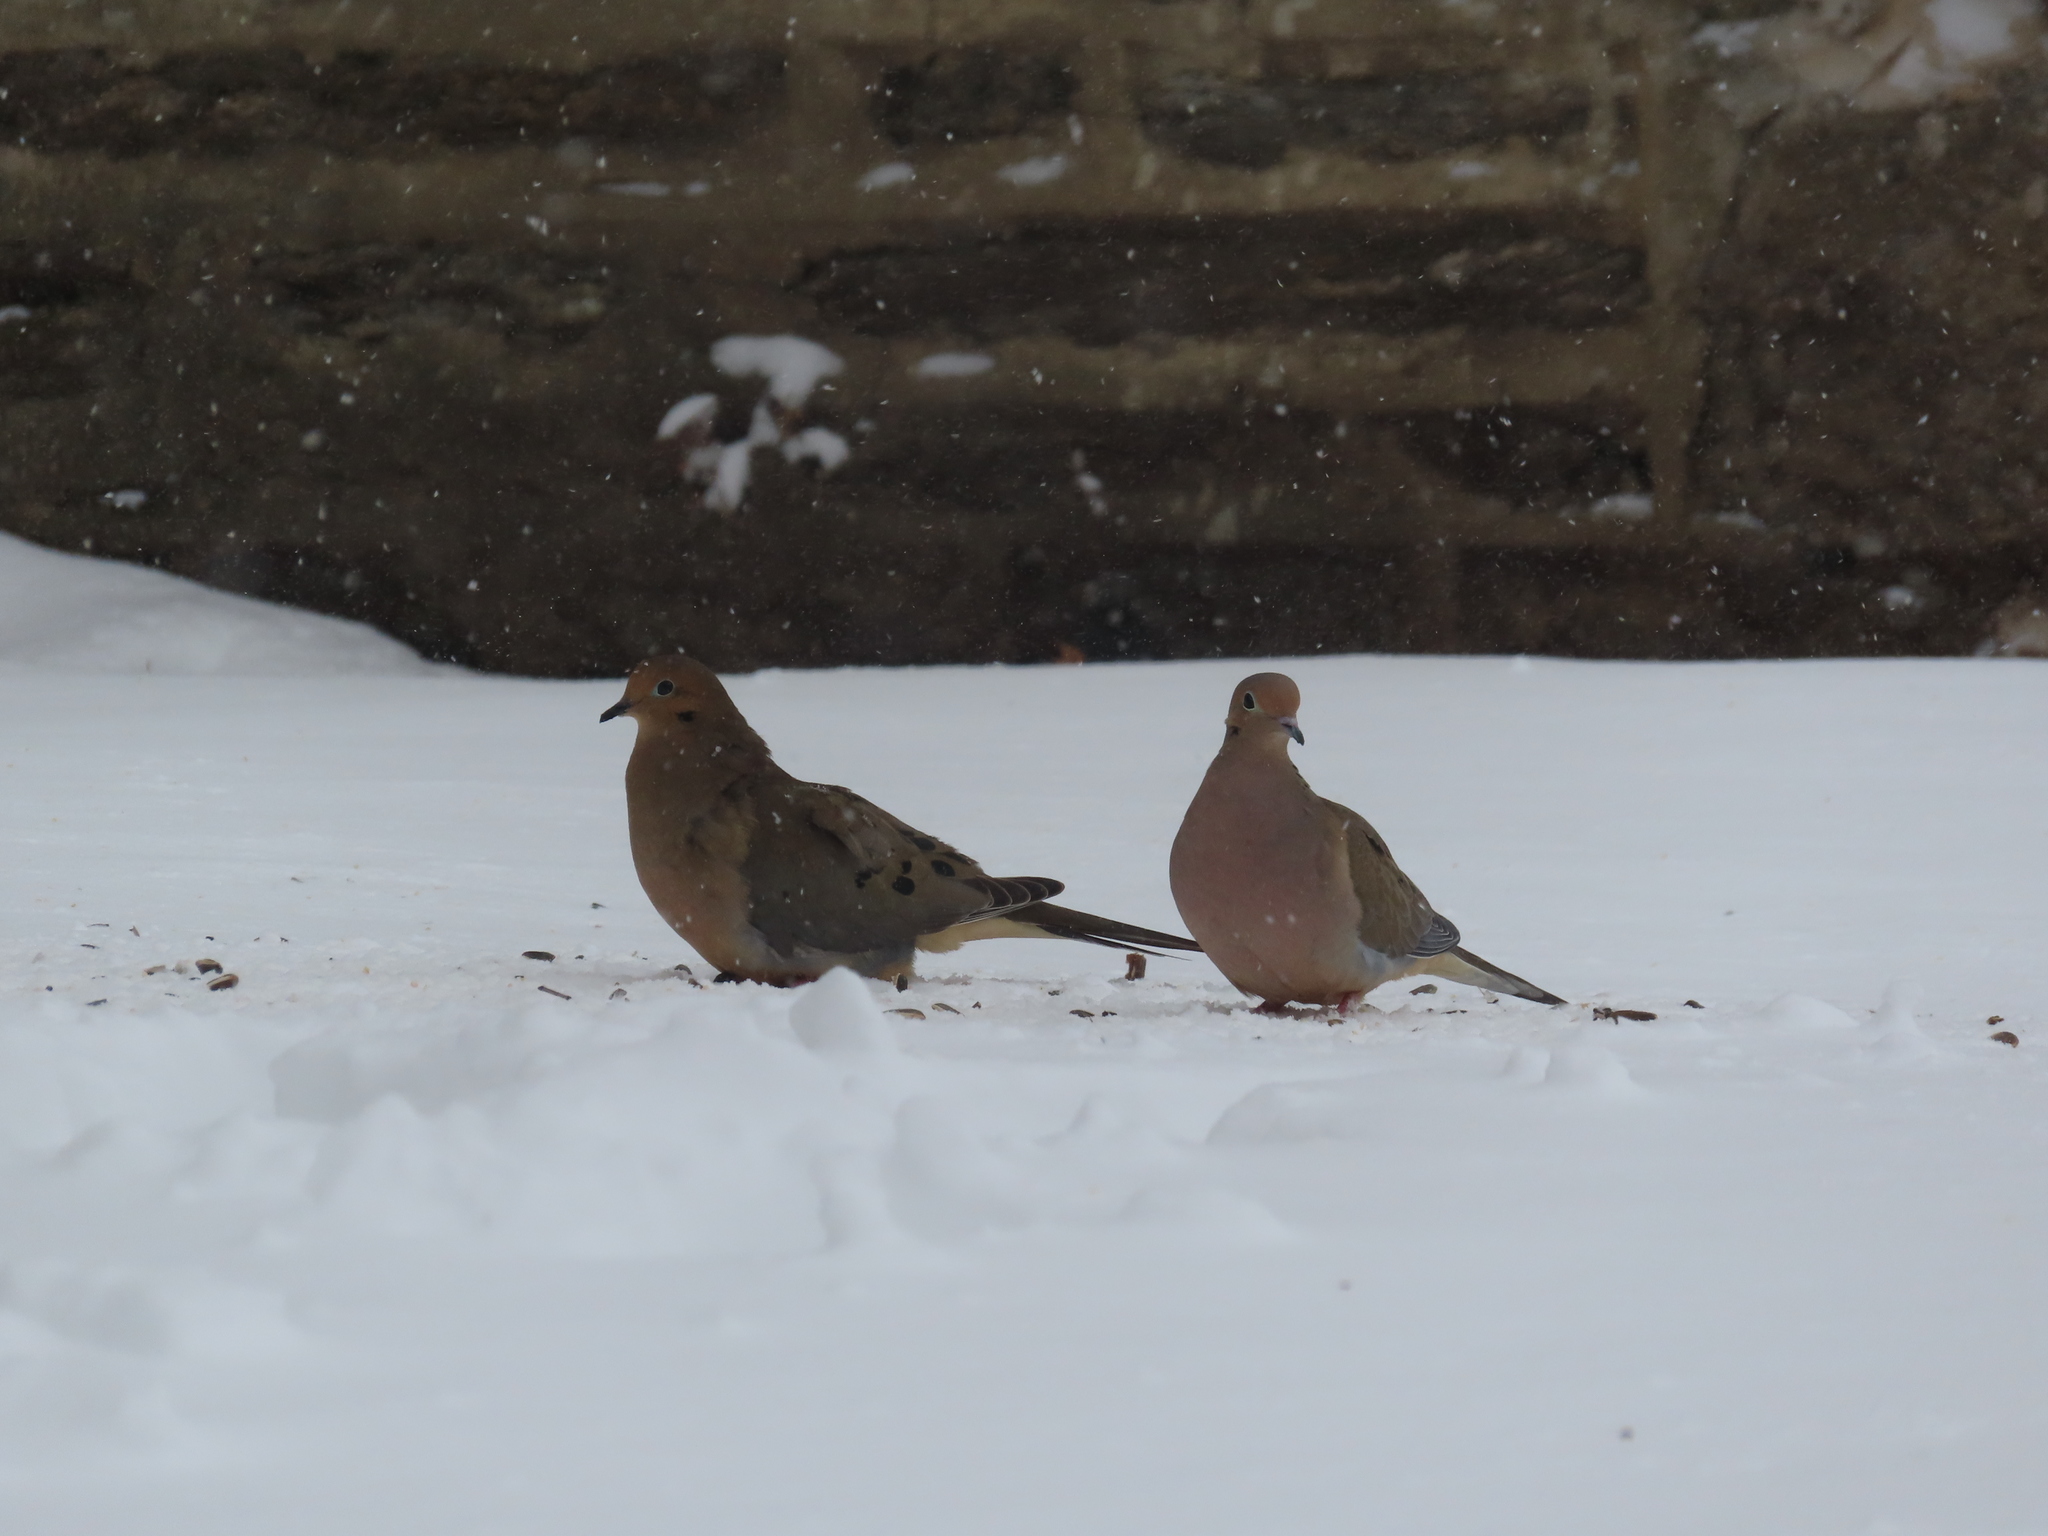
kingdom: Animalia
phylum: Chordata
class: Aves
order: Columbiformes
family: Columbidae
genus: Zenaida
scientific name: Zenaida macroura
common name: Mourning dove
